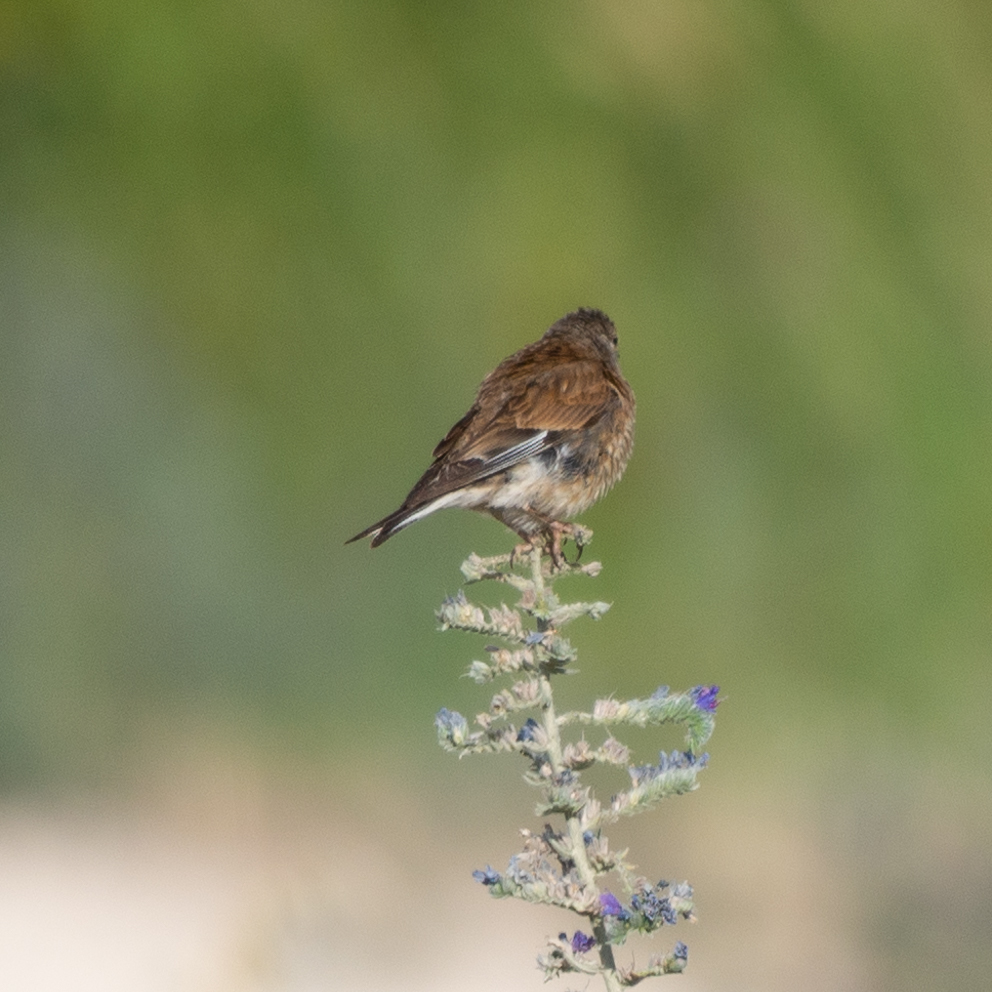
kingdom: Animalia
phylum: Chordata
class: Aves
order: Passeriformes
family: Fringillidae
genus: Linaria
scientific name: Linaria cannabina
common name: Common linnet
